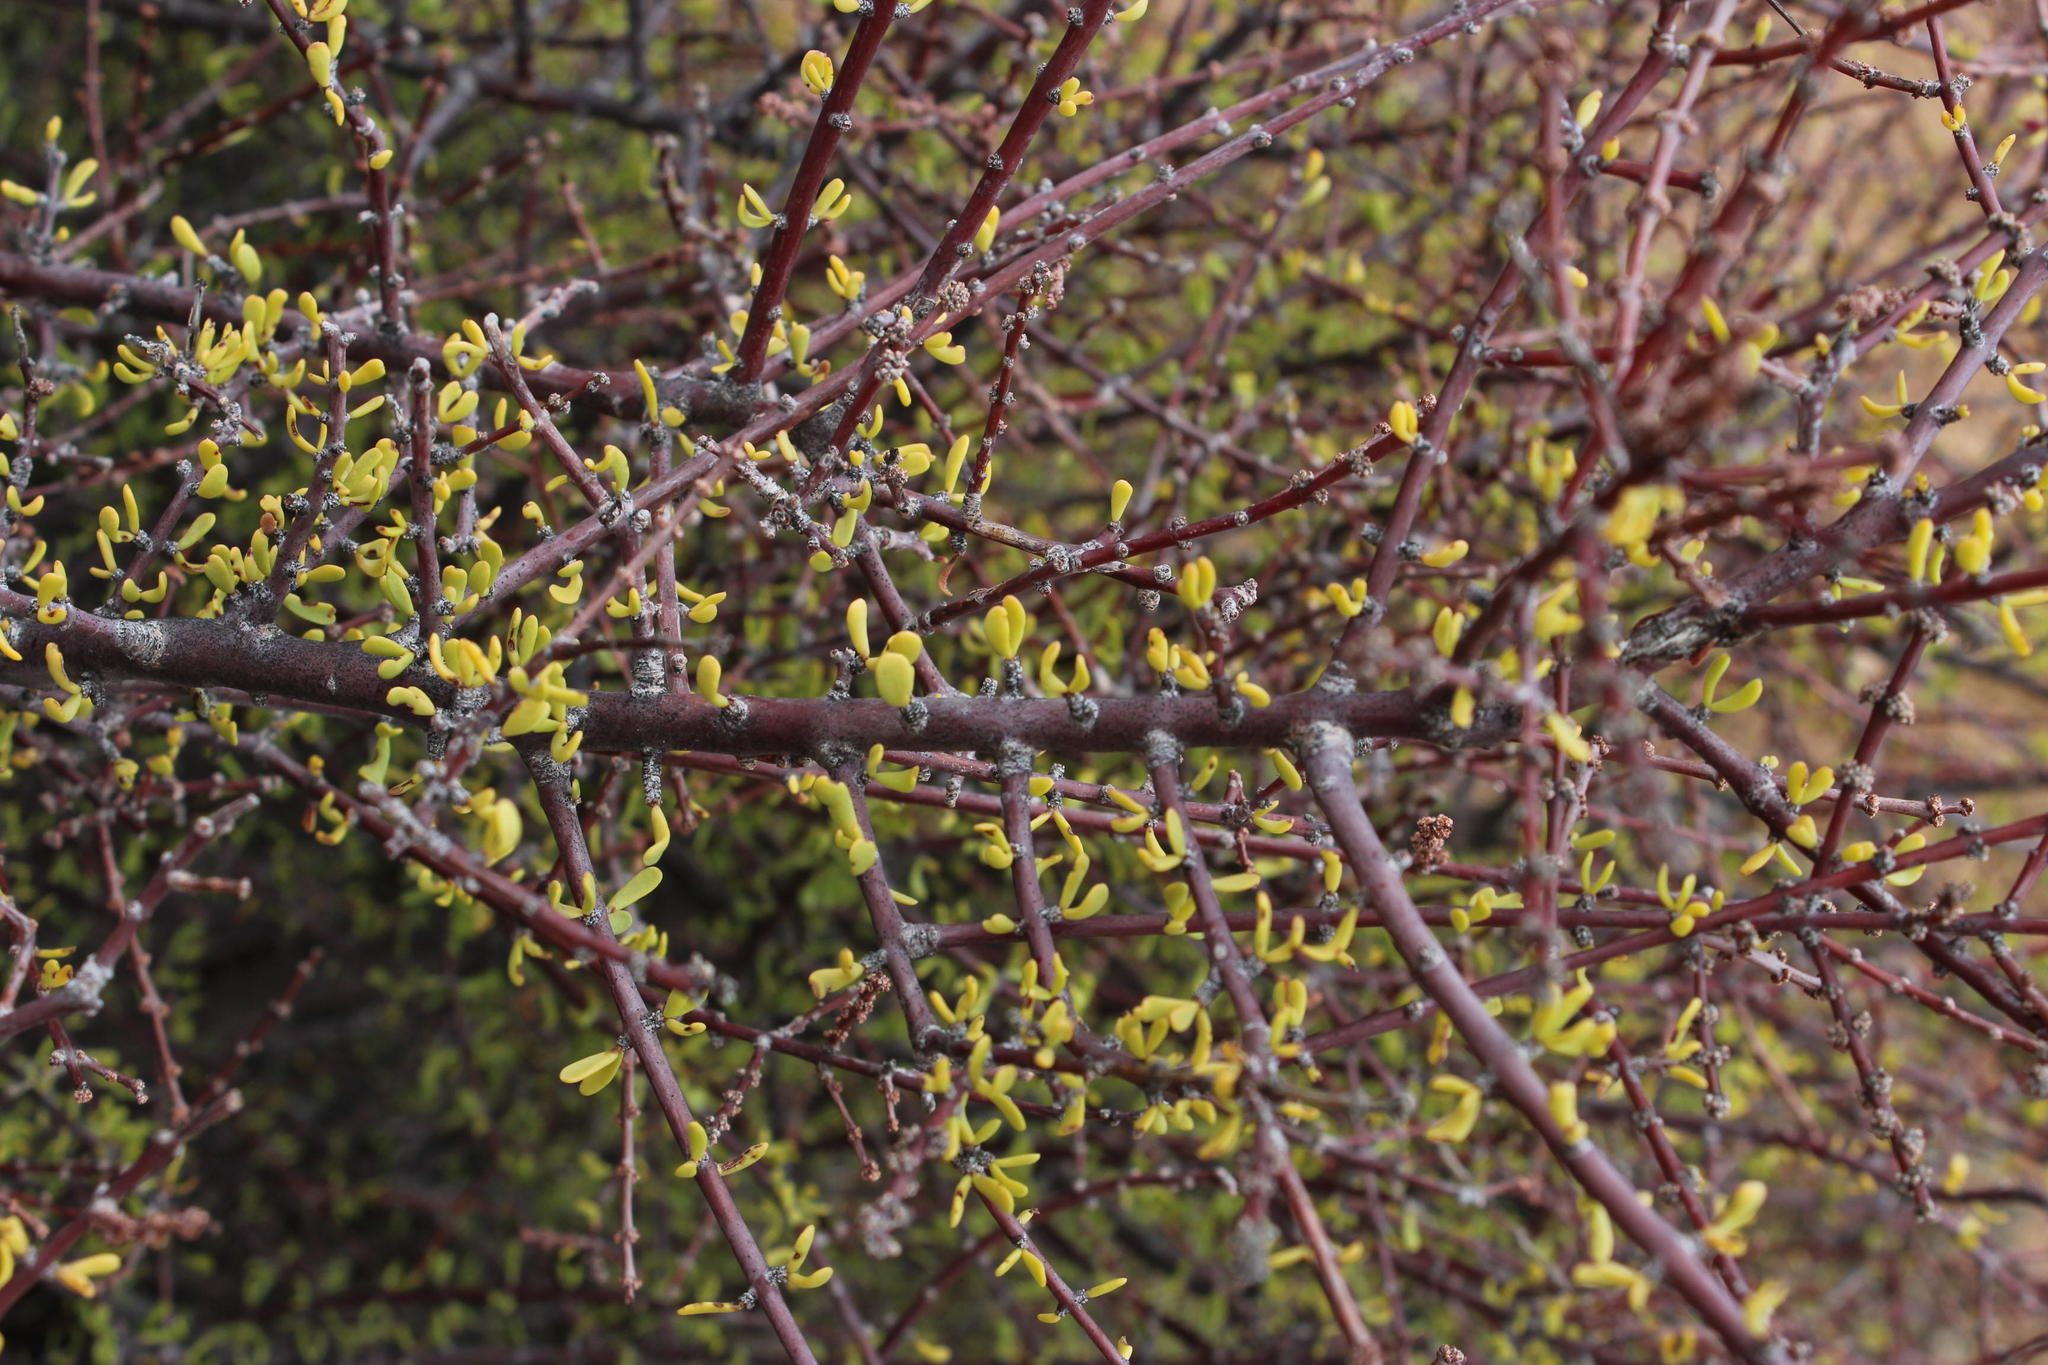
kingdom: Plantae
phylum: Tracheophyta
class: Magnoliopsida
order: Caryophyllales
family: Didiereaceae
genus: Portulacaria
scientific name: Portulacaria fruticulosa
